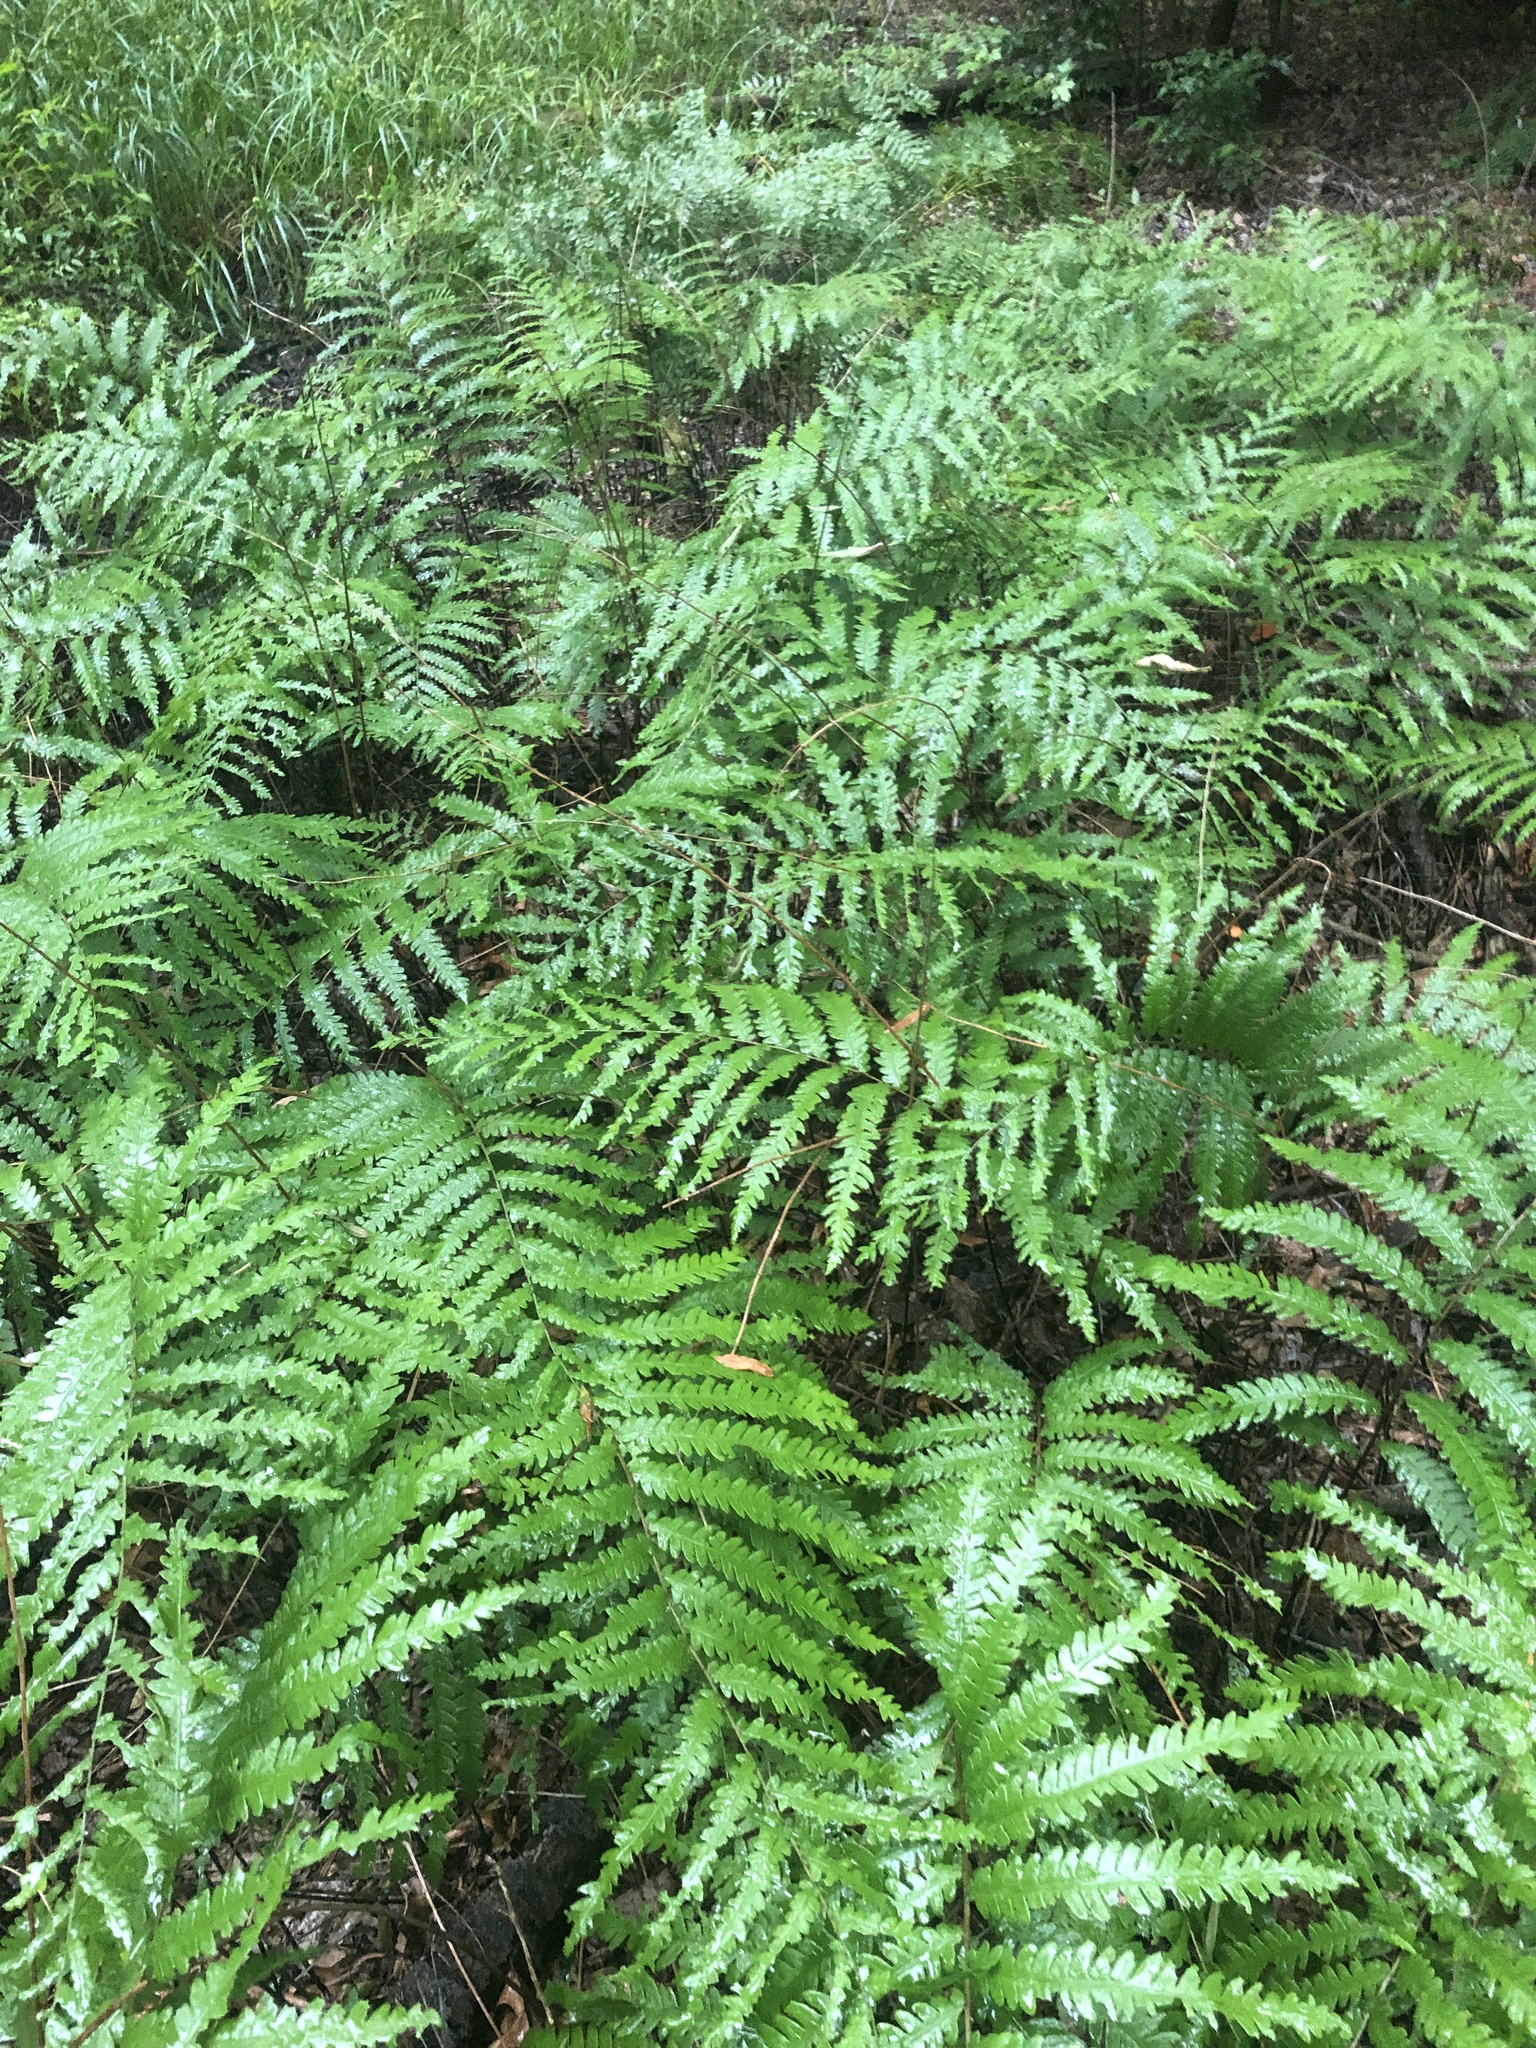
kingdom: Plantae
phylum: Tracheophyta
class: Polypodiopsida
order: Polypodiales
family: Blechnaceae
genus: Anchistea
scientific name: Anchistea virginica
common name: Virginia chain fern
